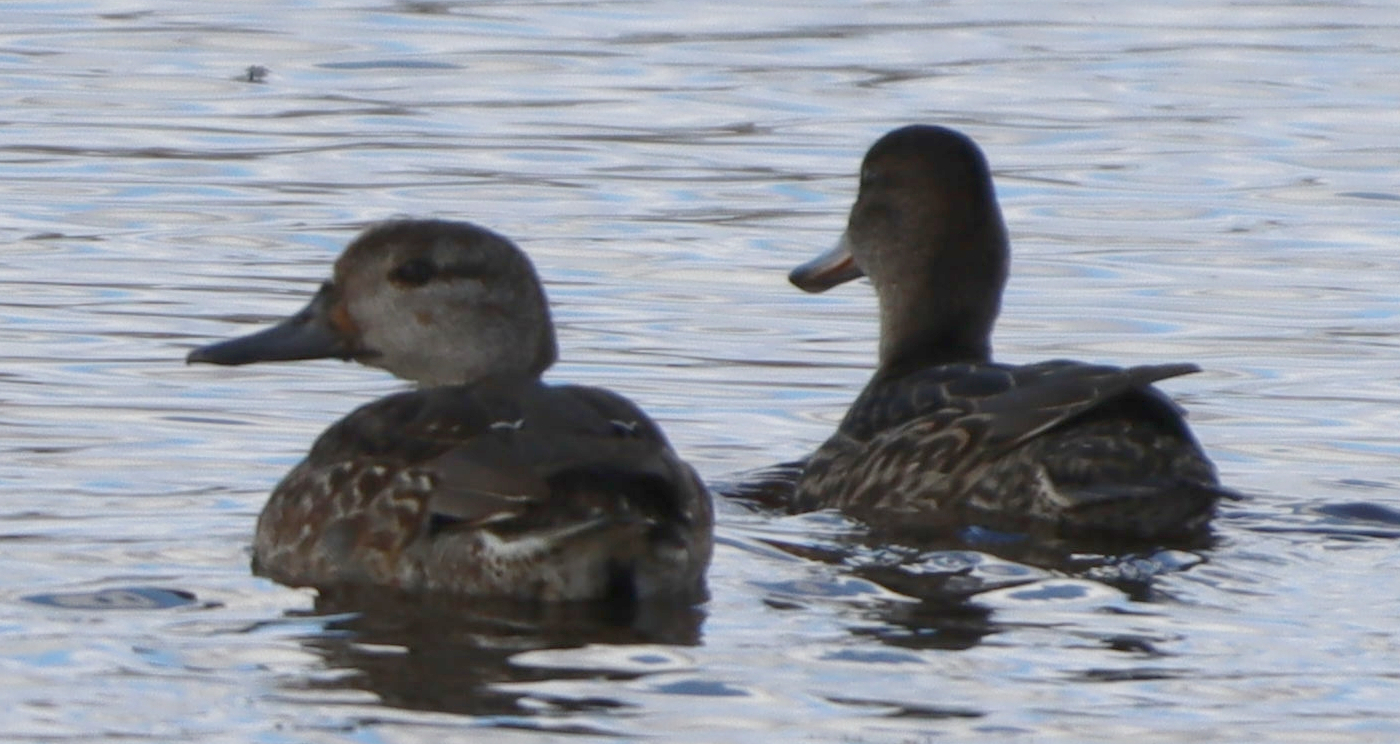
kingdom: Animalia
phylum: Chordata
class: Aves
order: Anseriformes
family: Anatidae
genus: Anas
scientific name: Anas crecca
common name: Eurasian teal
